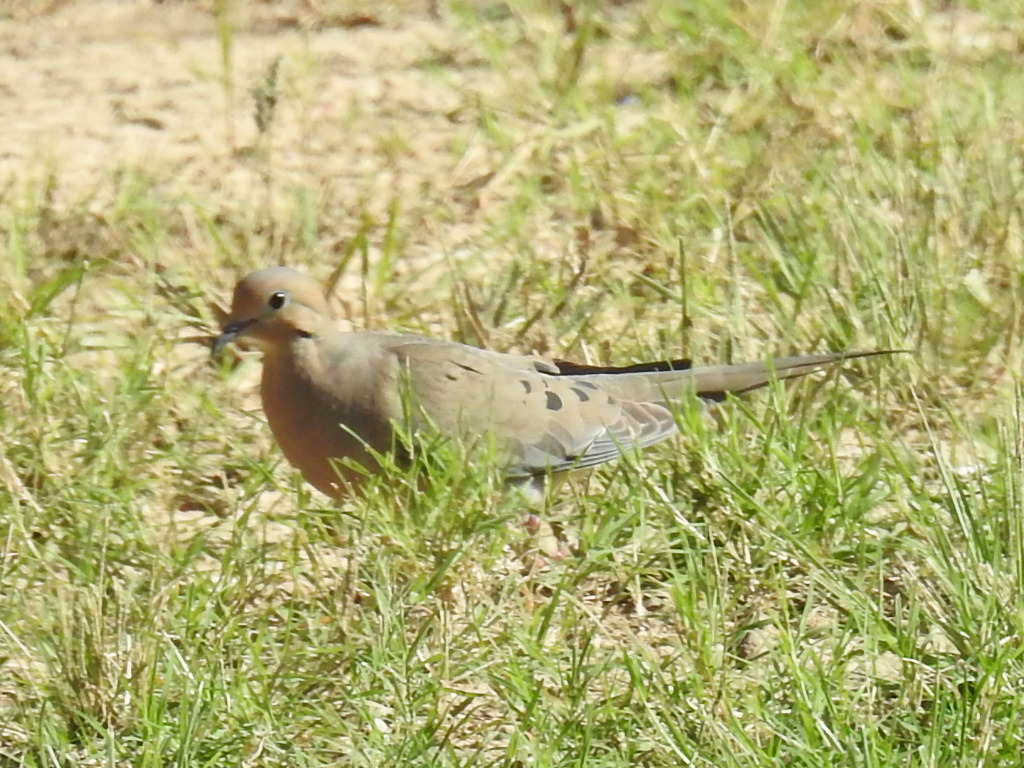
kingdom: Animalia
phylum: Chordata
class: Aves
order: Columbiformes
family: Columbidae
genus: Zenaida
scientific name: Zenaida macroura
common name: Mourning dove
